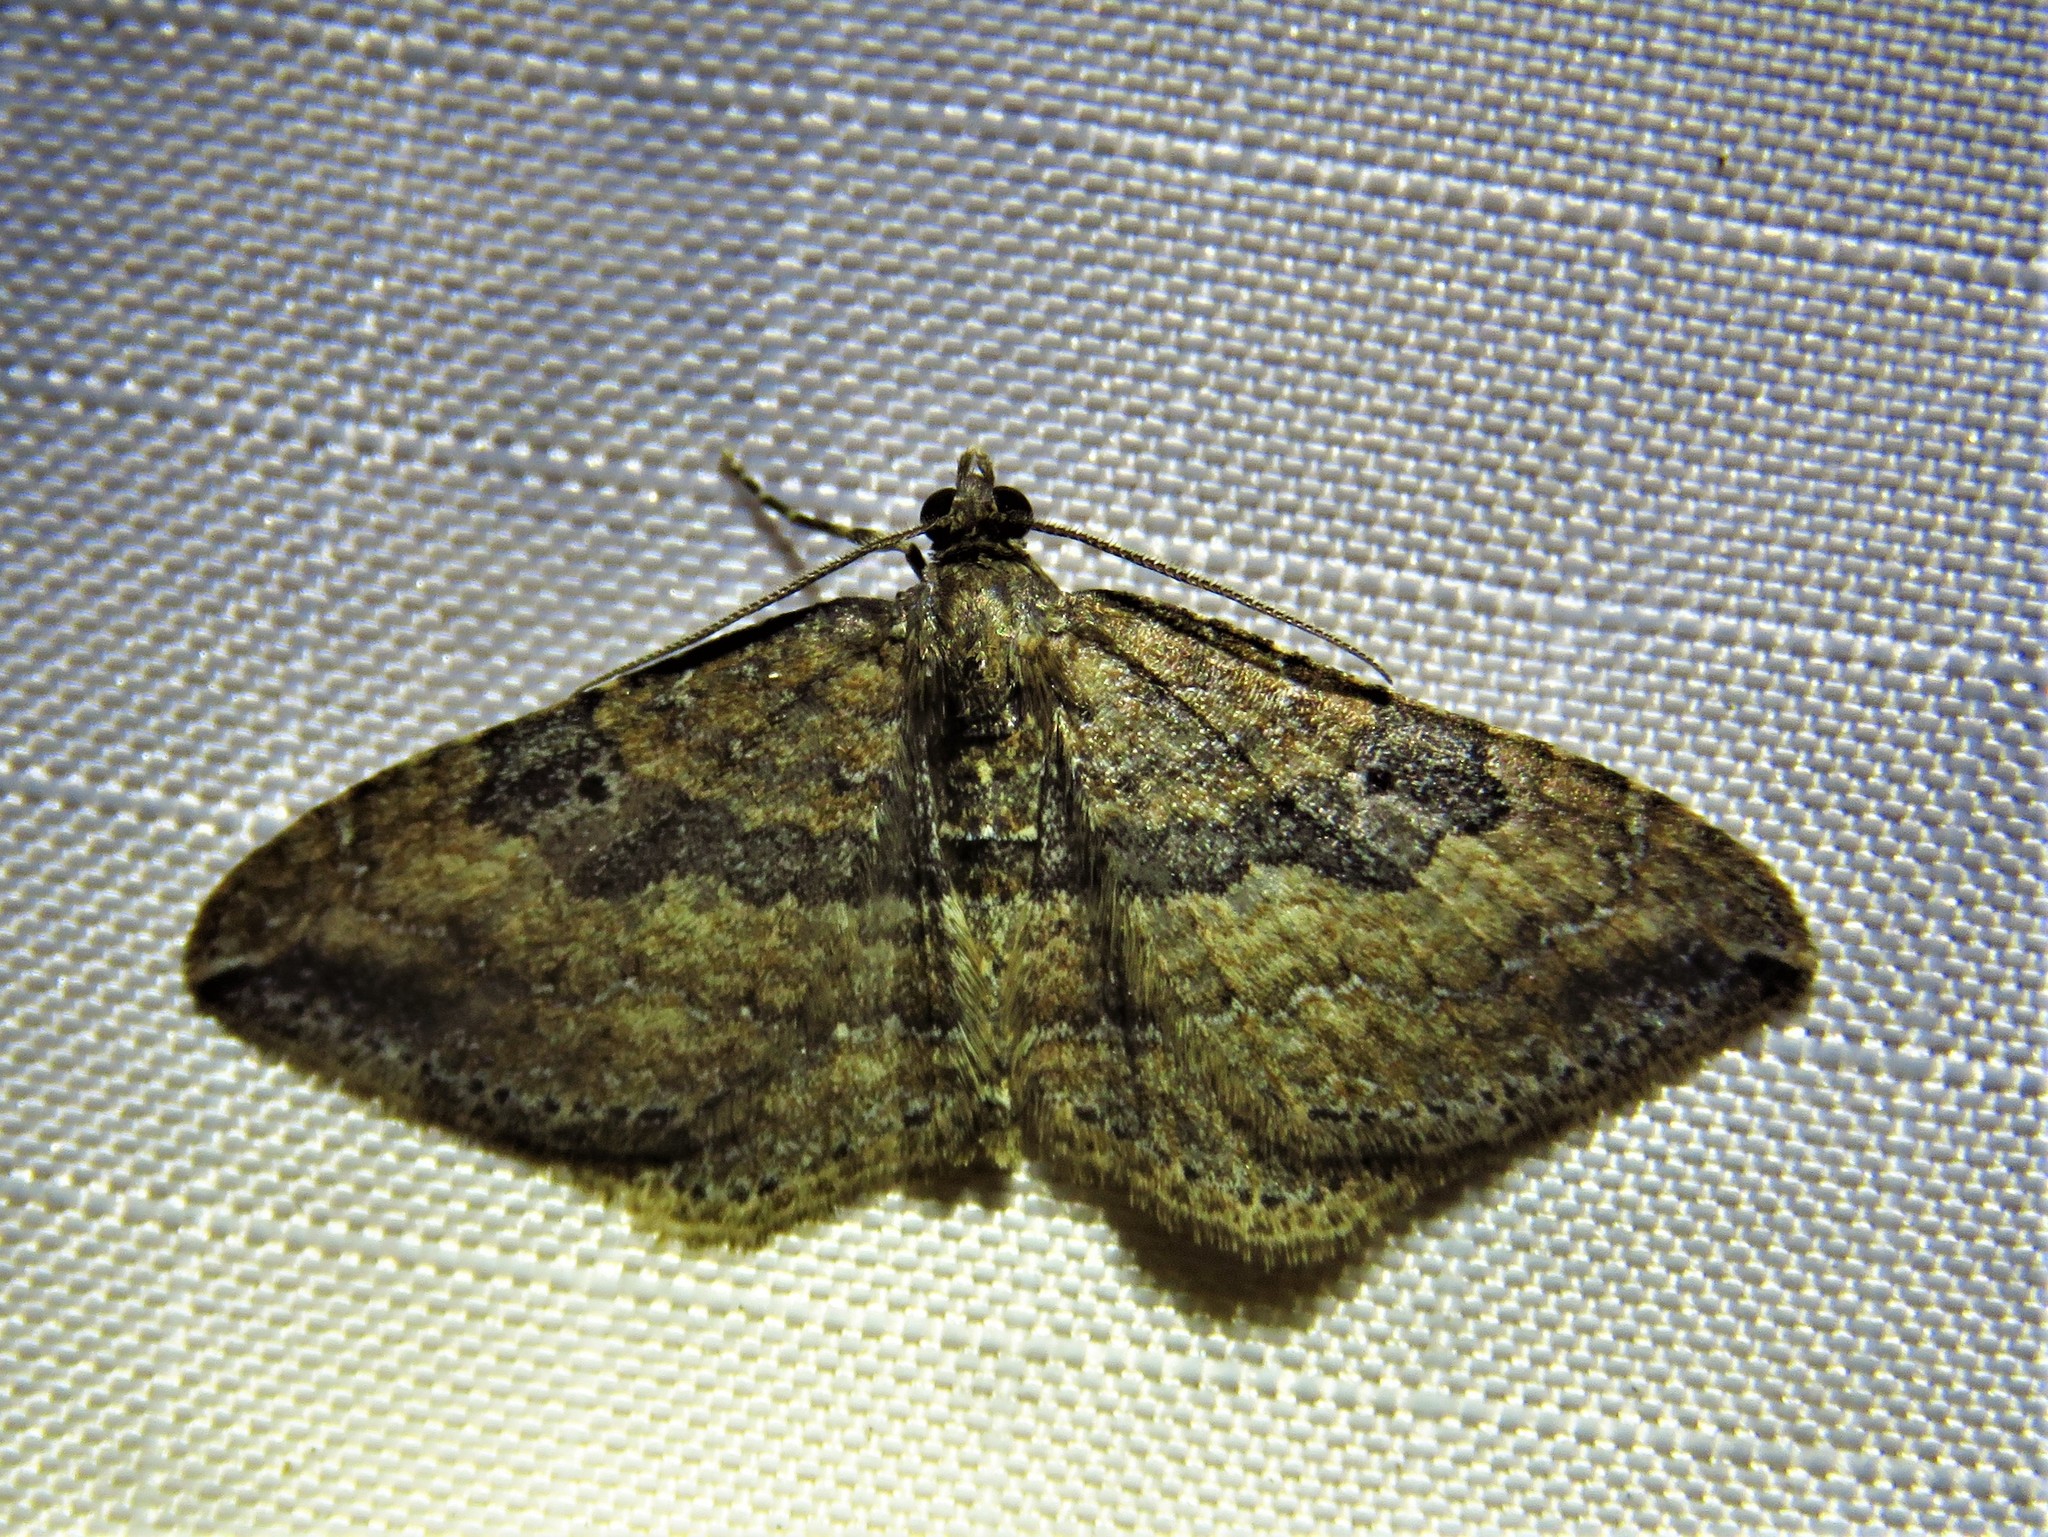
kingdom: Animalia
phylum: Arthropoda
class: Insecta
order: Lepidoptera
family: Geometridae
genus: Orthonama
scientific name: Orthonama obstipata
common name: The gem
